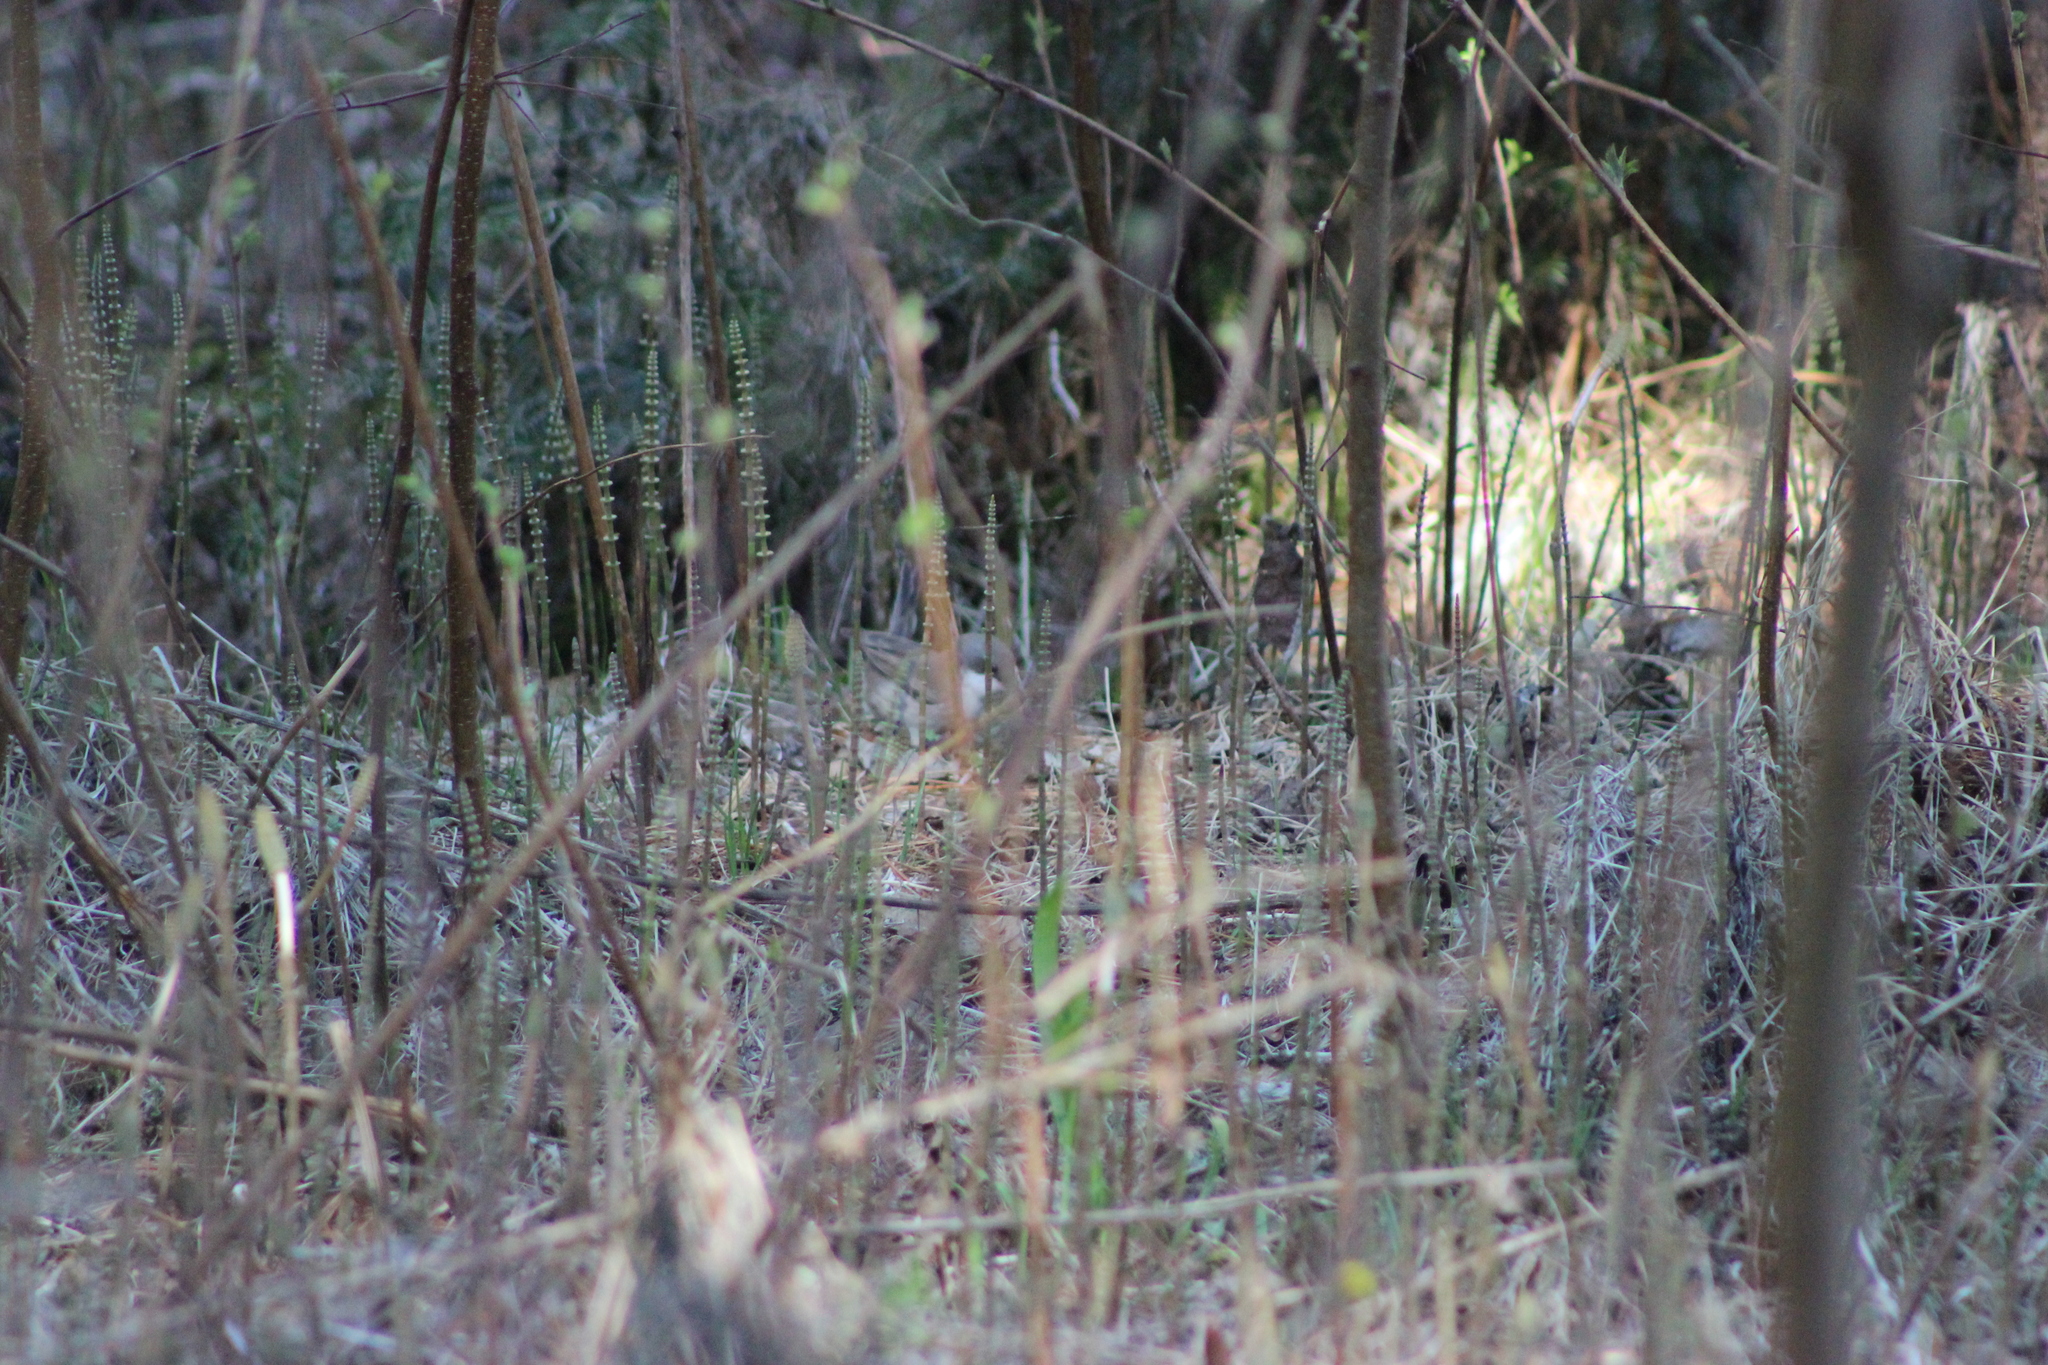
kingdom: Animalia
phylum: Chordata
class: Aves
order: Passeriformes
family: Sylviidae
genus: Sylvia
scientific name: Sylvia curruca
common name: Lesser whitethroat
